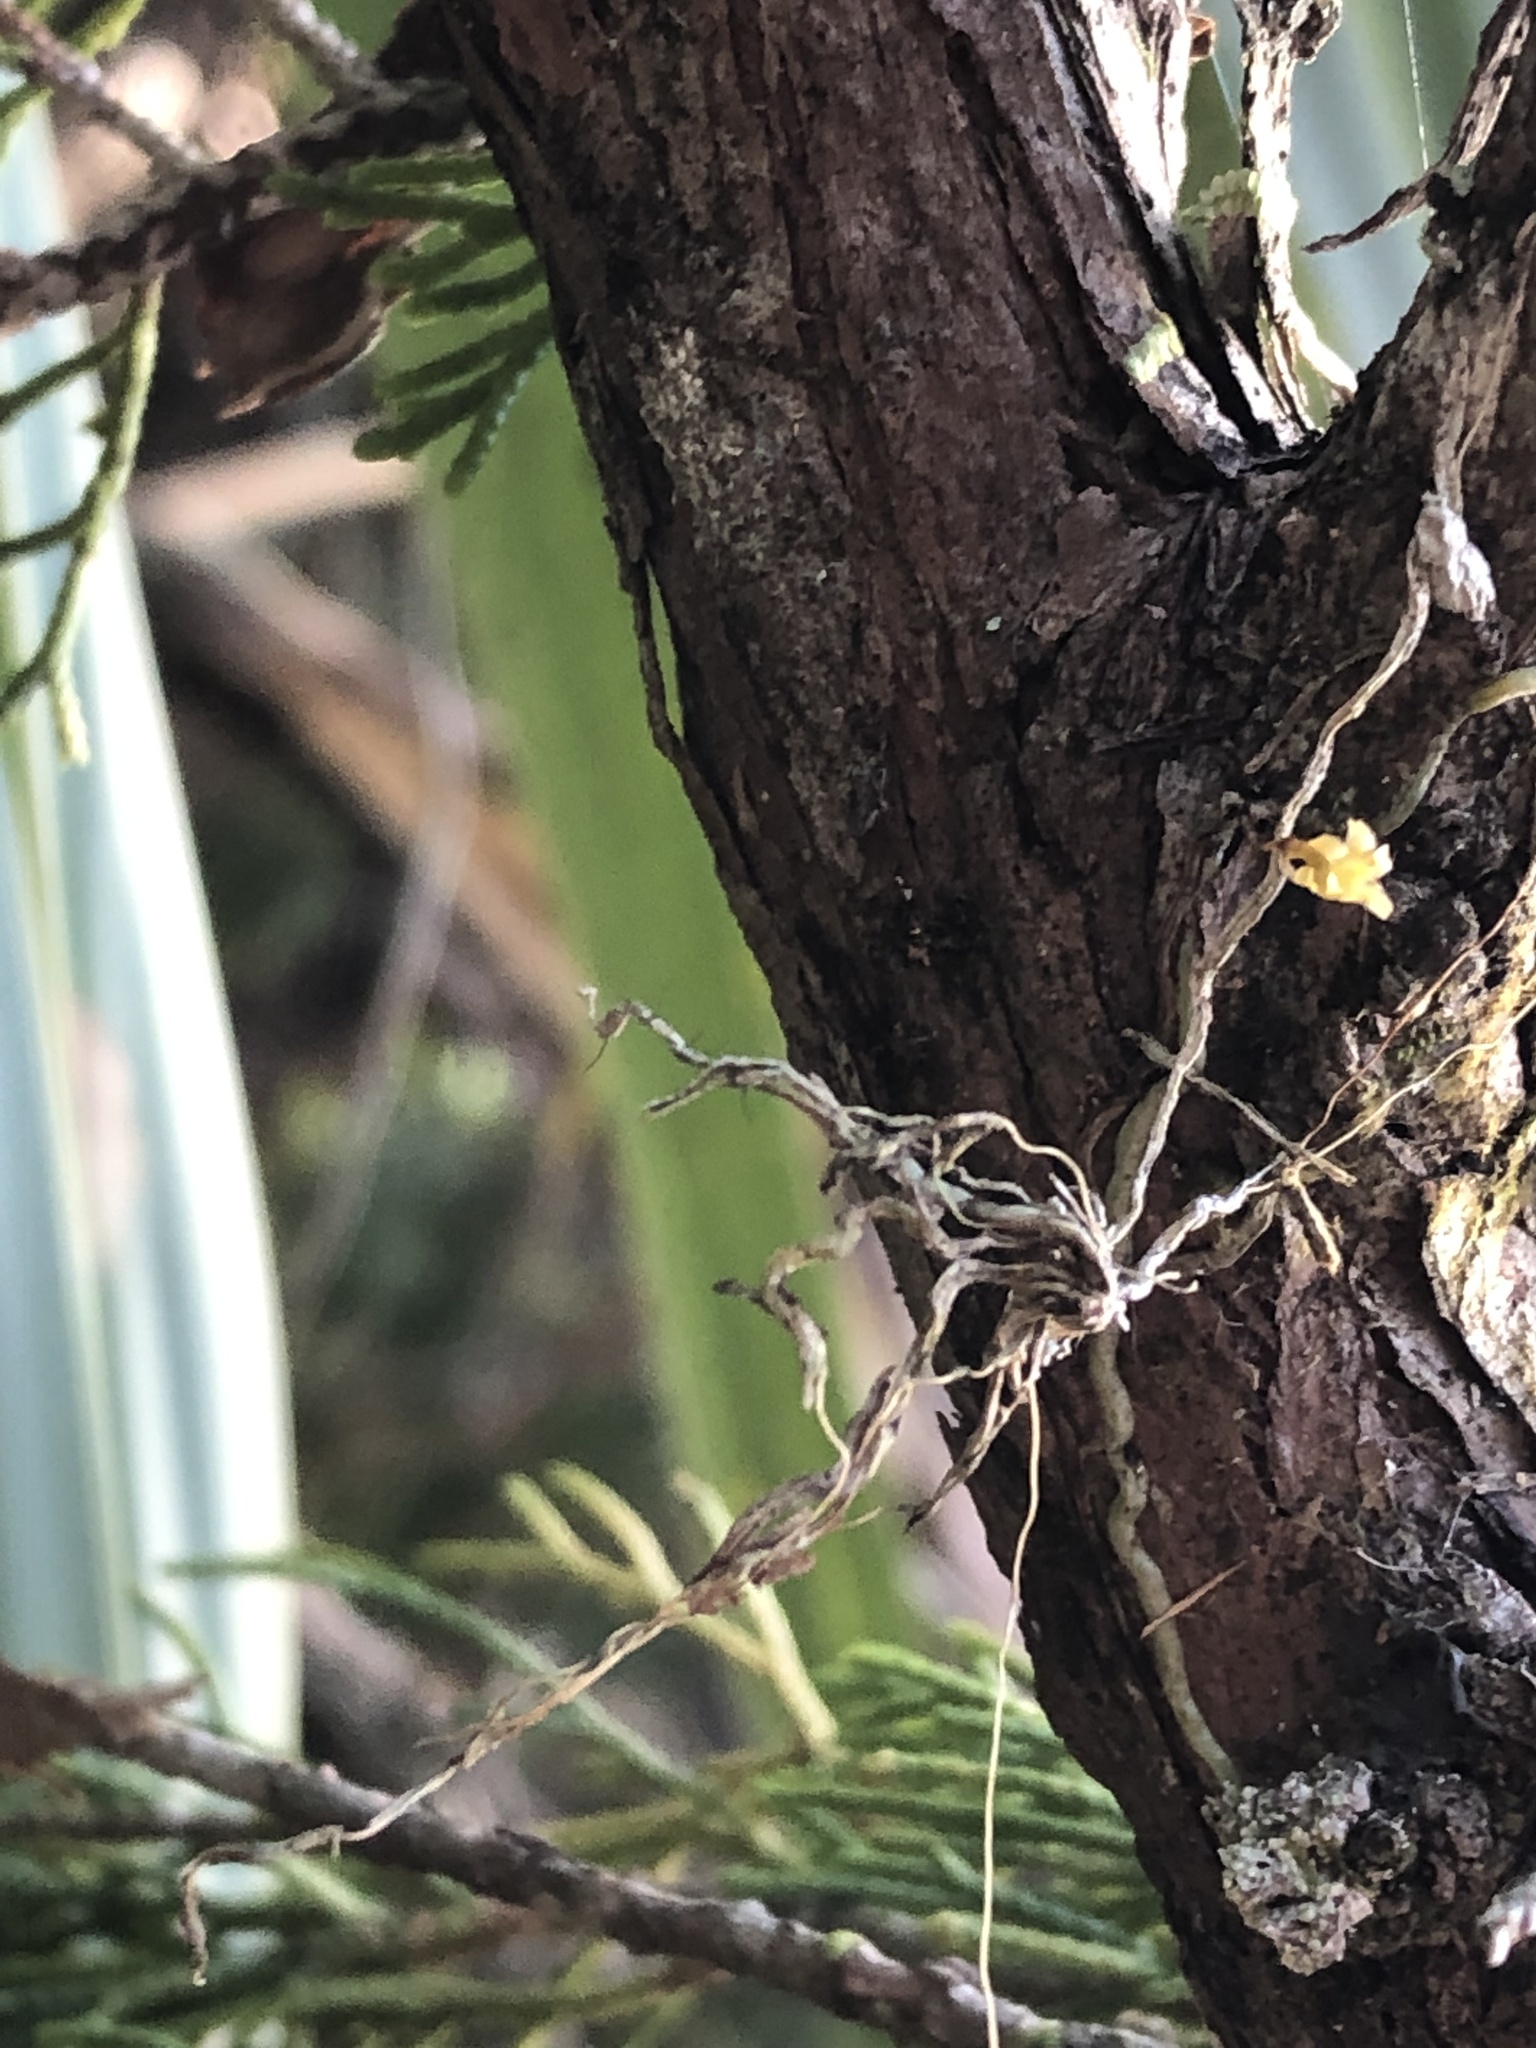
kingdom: Plantae
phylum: Tracheophyta
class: Liliopsida
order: Asparagales
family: Orchidaceae
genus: Dendrophylax
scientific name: Dendrophylax porrectus
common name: Needleroot airplant orchid
